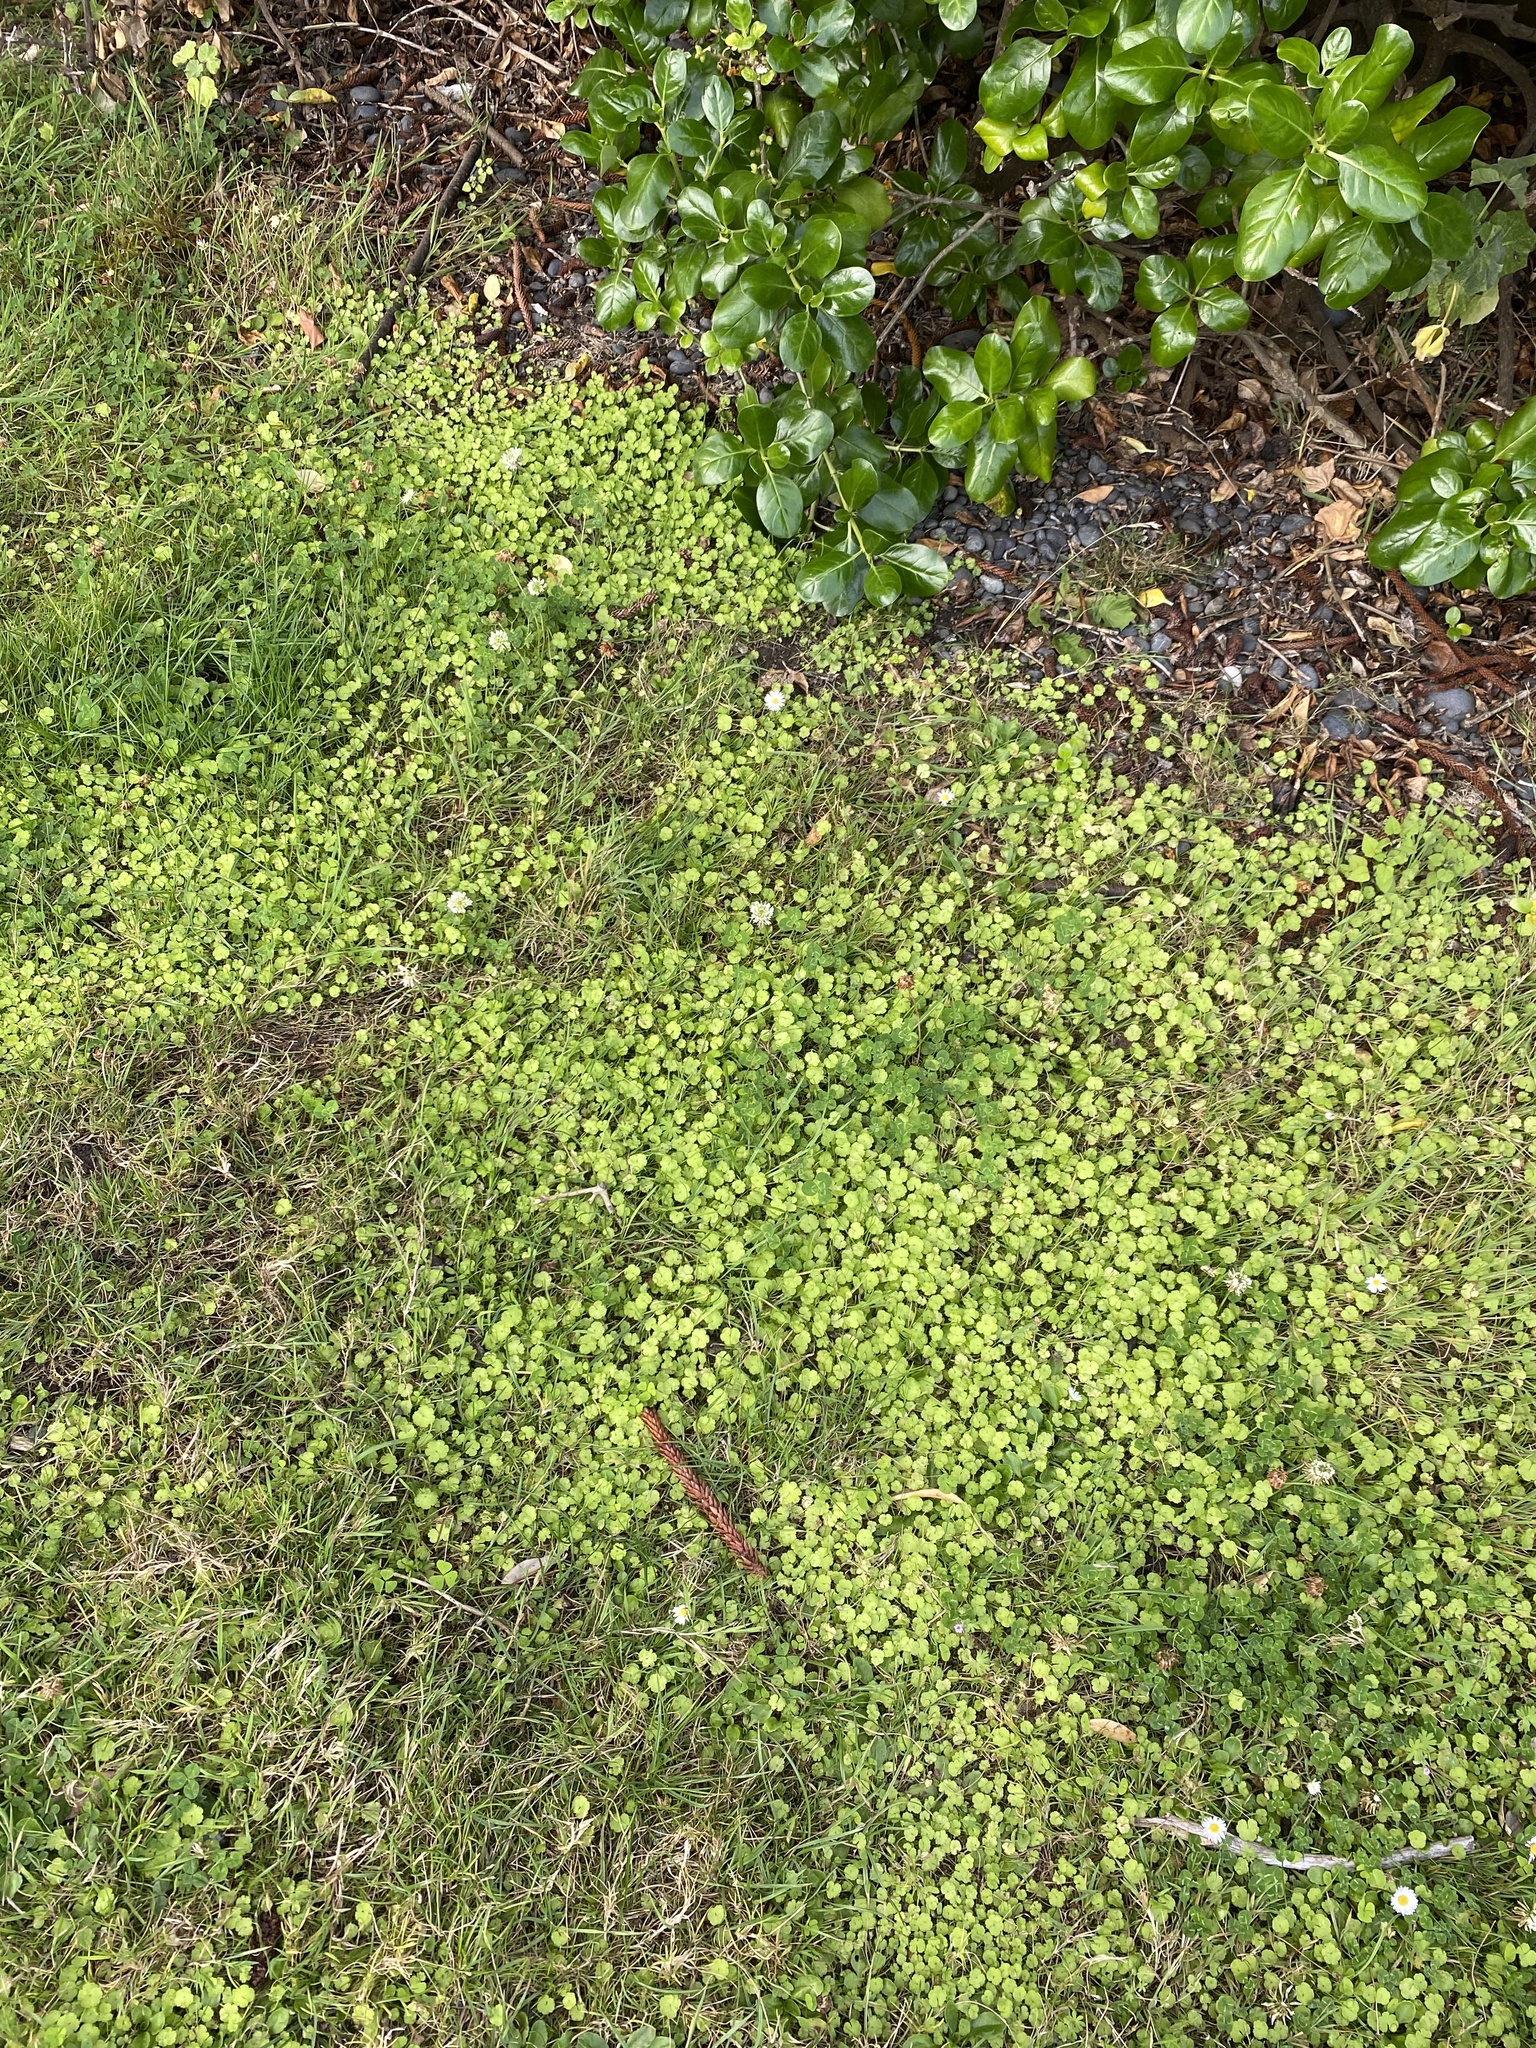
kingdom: Plantae
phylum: Tracheophyta
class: Magnoliopsida
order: Apiales
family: Araliaceae
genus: Hydrocotyle
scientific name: Hydrocotyle heteromeria
